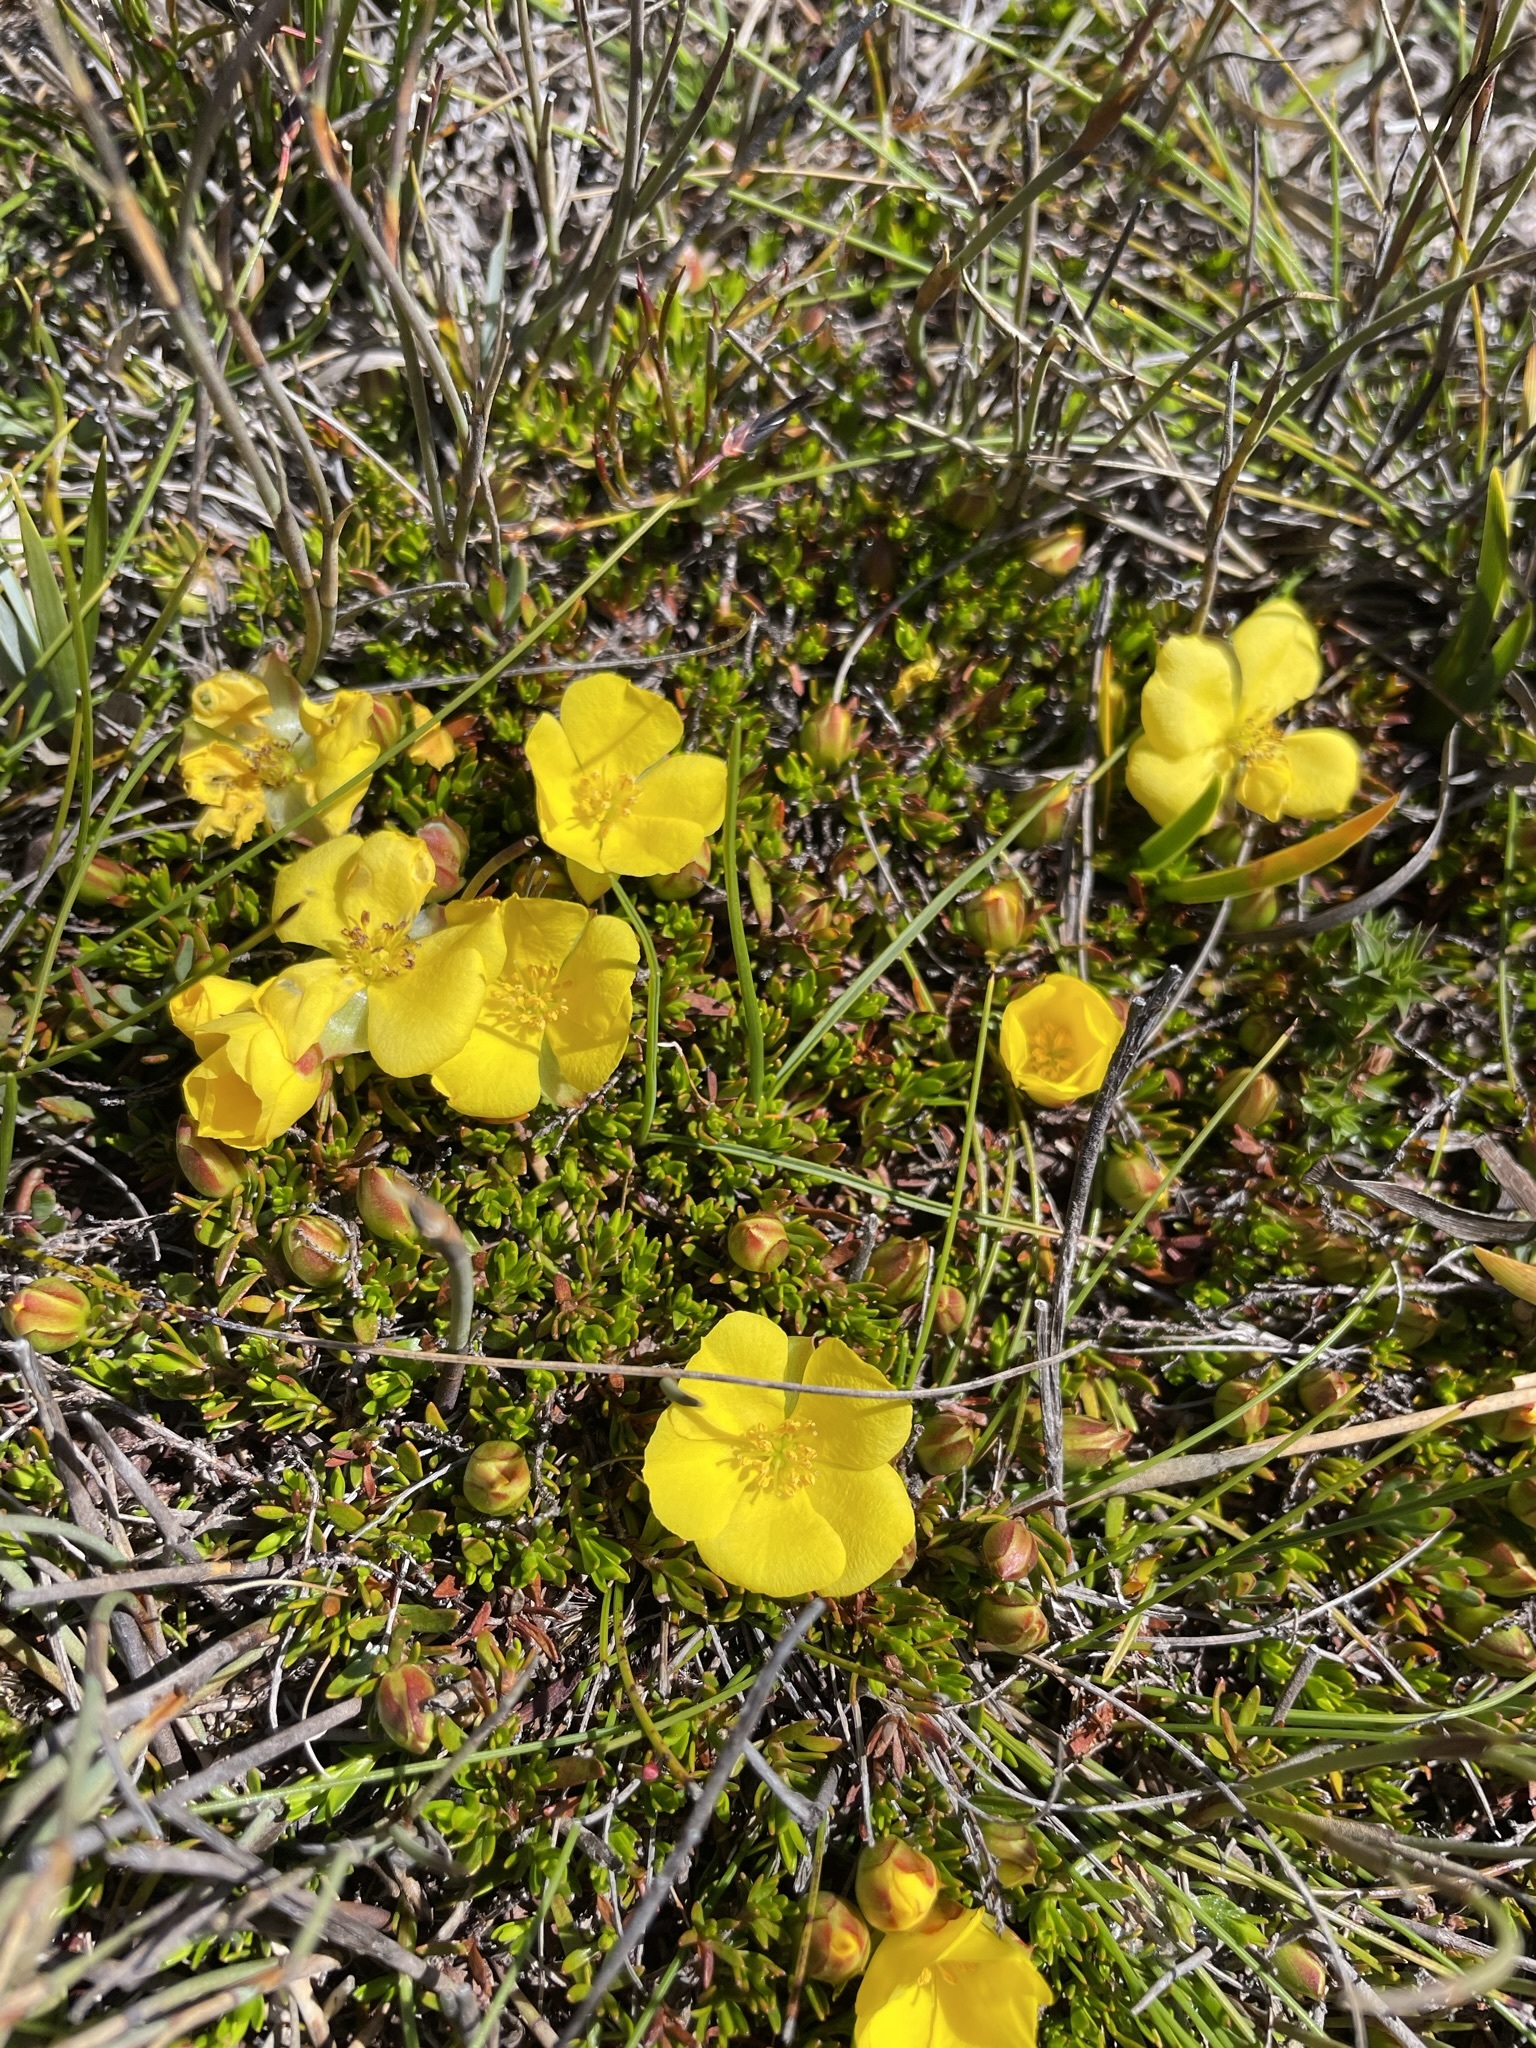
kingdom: Plantae
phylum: Tracheophyta
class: Magnoliopsida
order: Dilleniales
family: Dilleniaceae
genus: Hibbertia
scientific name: Hibbertia procumbens
